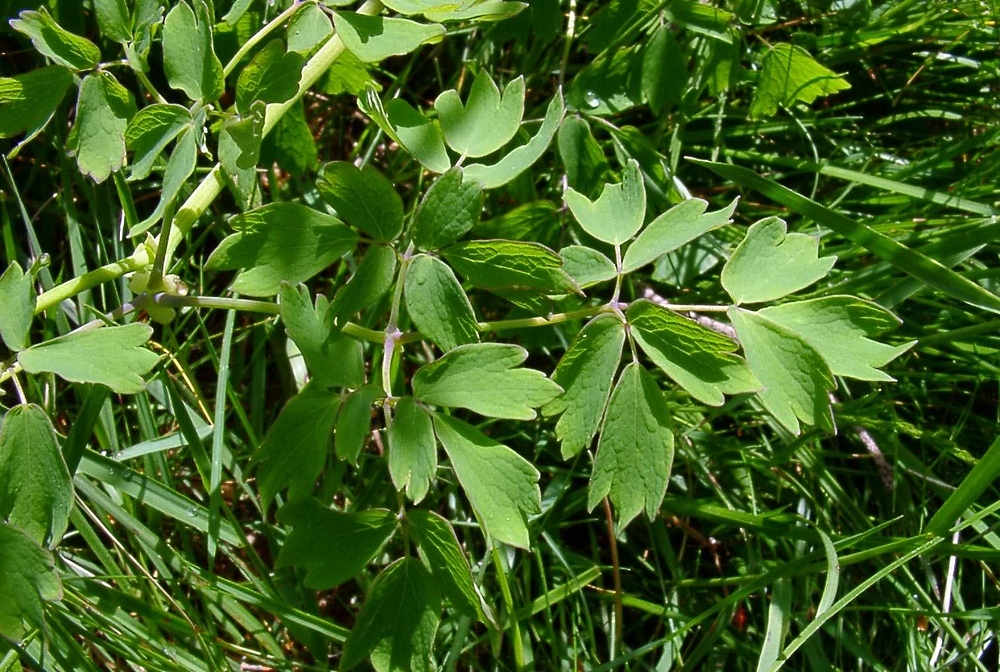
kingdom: Plantae
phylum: Tracheophyta
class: Magnoliopsida
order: Ranunculales
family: Ranunculaceae
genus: Thalictrum
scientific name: Thalictrum aquilegiifolium
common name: French meadow-rue
